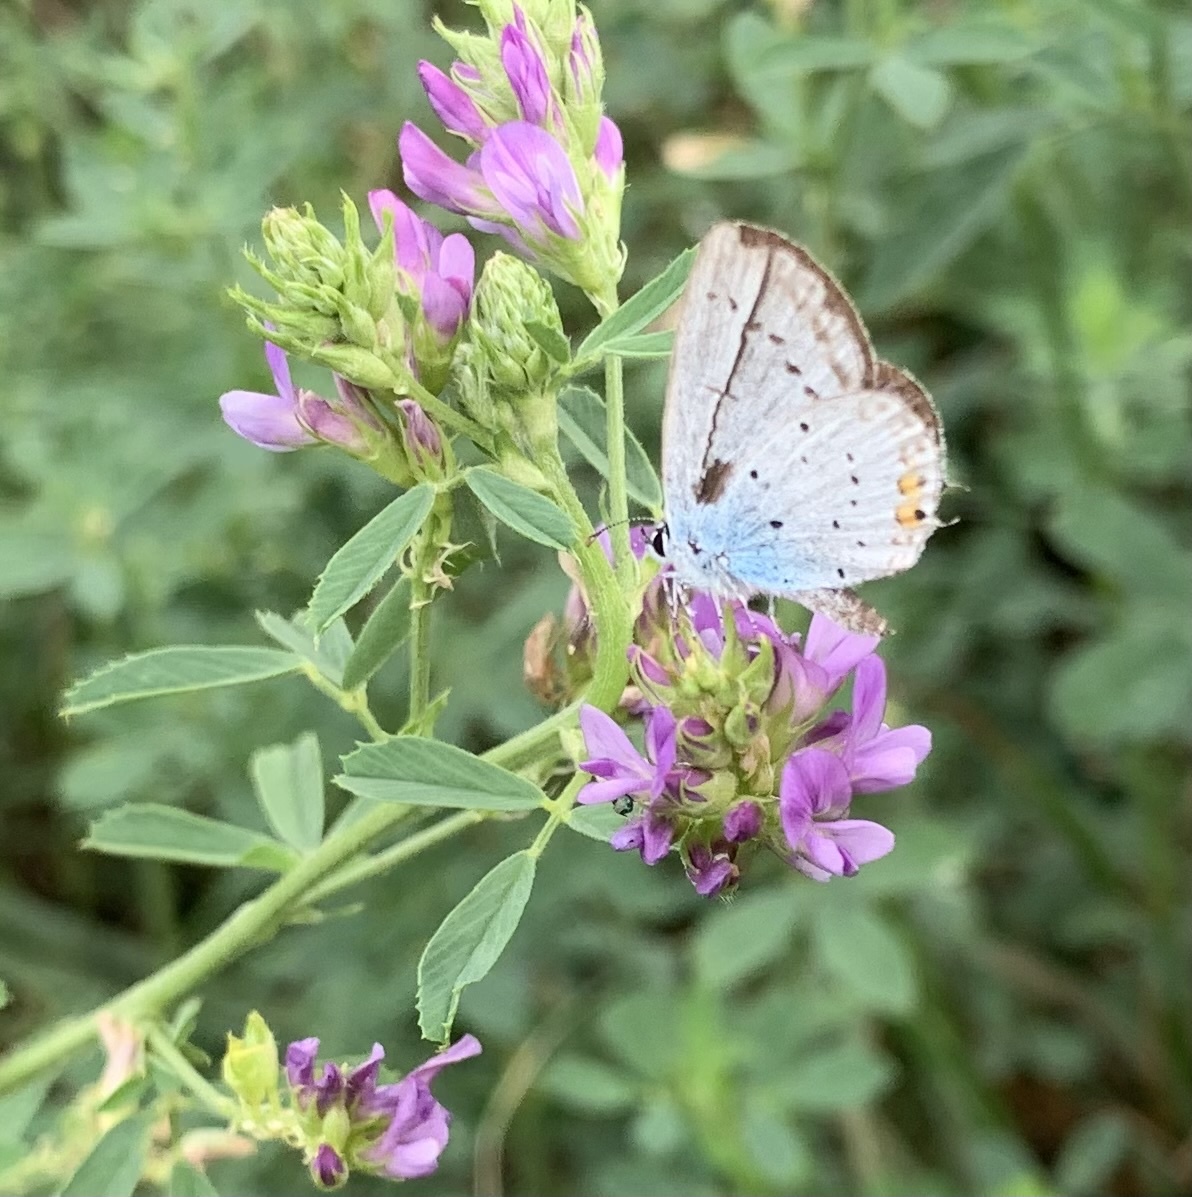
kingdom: Animalia
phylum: Arthropoda
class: Insecta
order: Lepidoptera
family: Lycaenidae
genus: Elkalyce
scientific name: Elkalyce argiades
